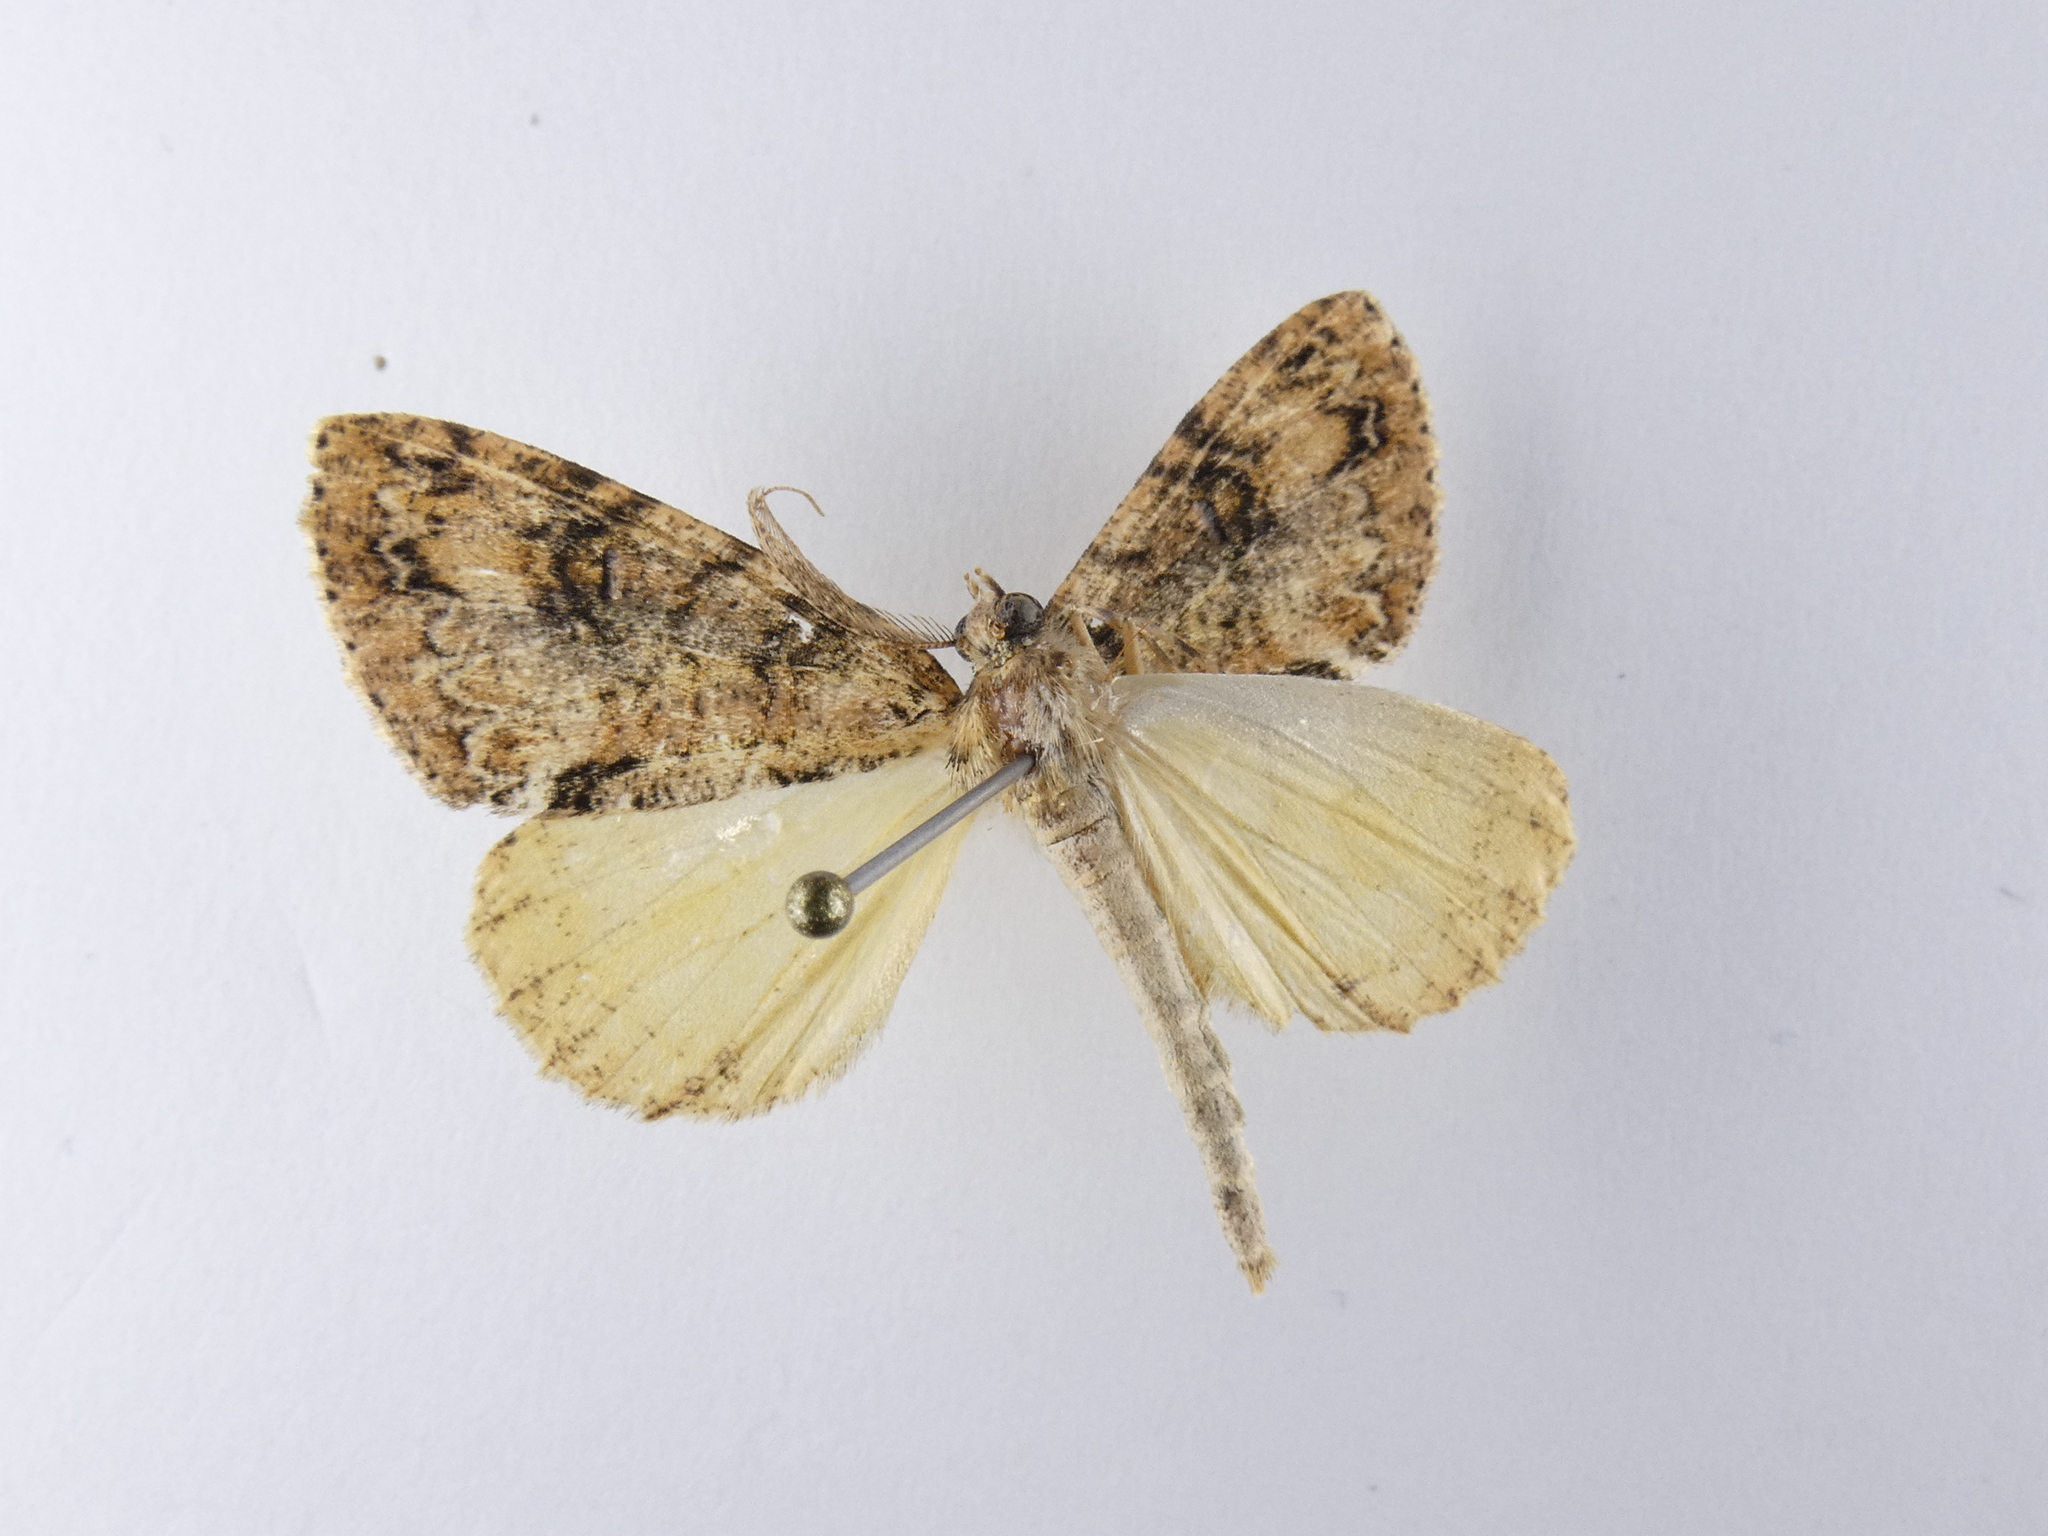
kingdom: Animalia
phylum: Arthropoda
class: Insecta
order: Lepidoptera
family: Geometridae
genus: Pseudocoremia
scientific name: Pseudocoremia suavis
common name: Common forest looper
